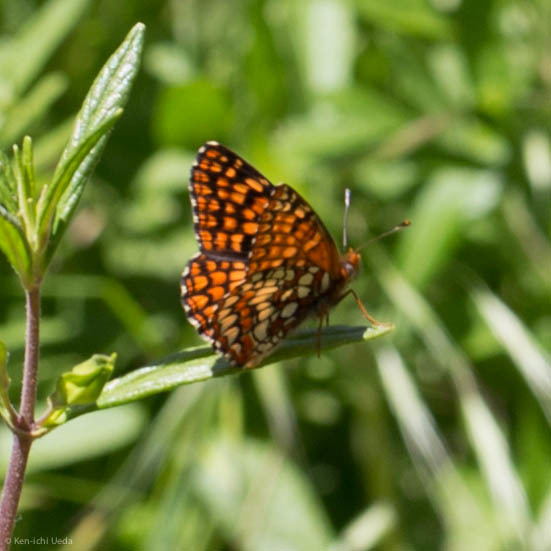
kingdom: Animalia
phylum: Arthropoda
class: Insecta
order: Lepidoptera
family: Nymphalidae
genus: Chlosyne
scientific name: Chlosyne palla
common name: Northern checkerspot
